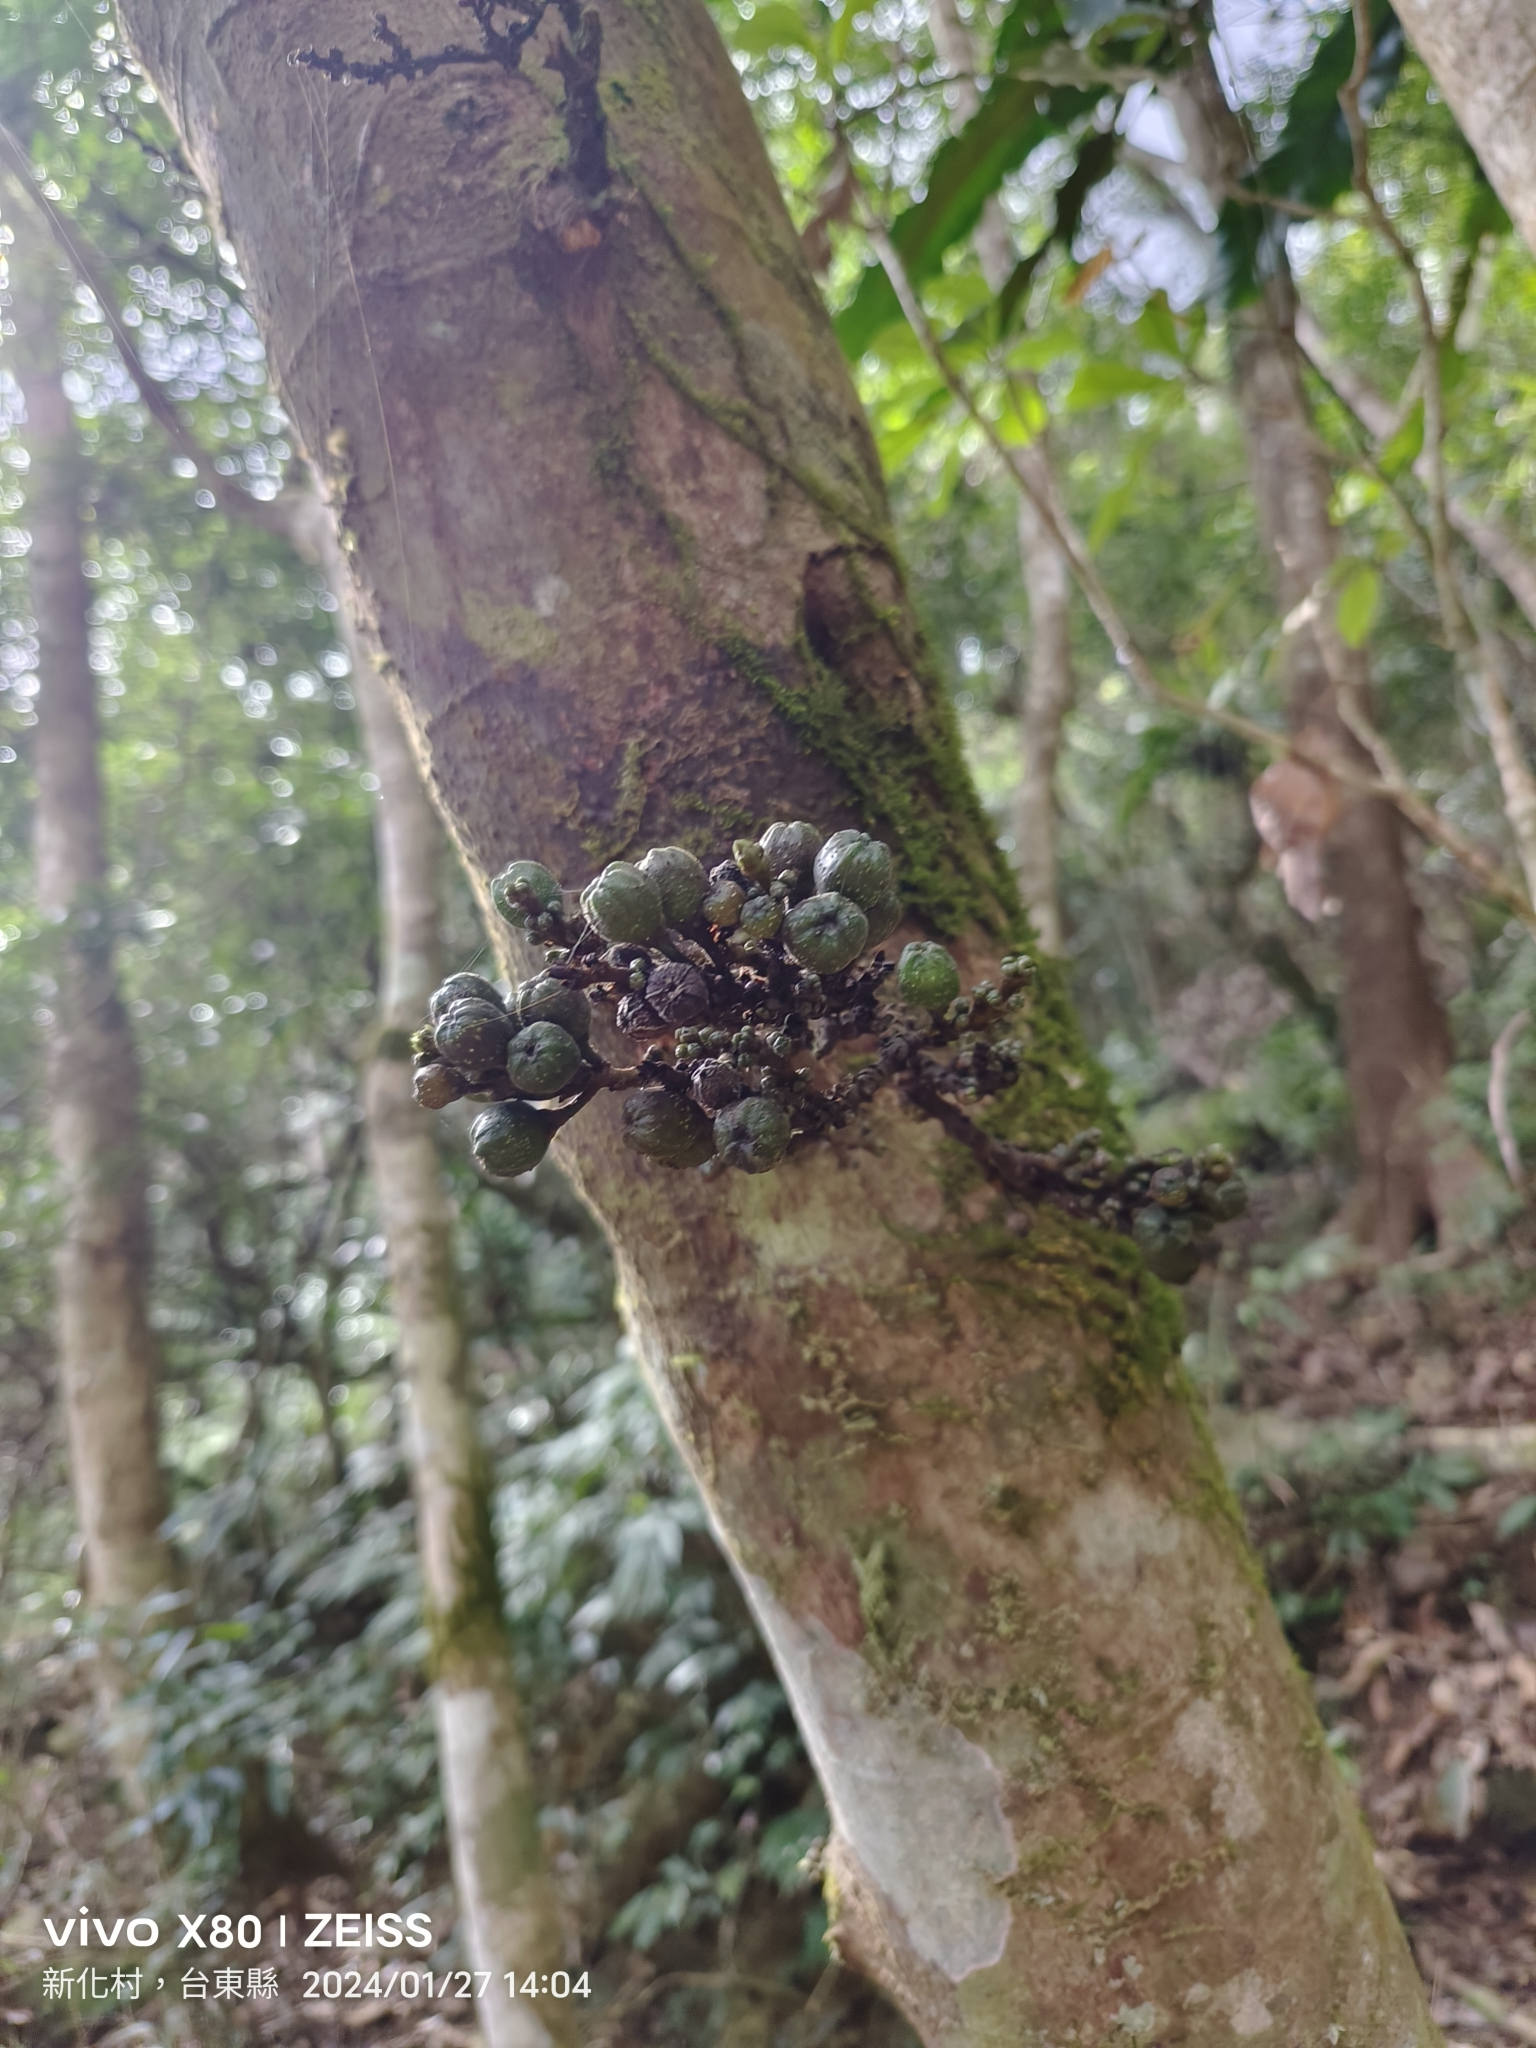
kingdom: Plantae
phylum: Tracheophyta
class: Magnoliopsida
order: Rosales
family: Moraceae
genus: Ficus
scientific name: Ficus benguetensis
